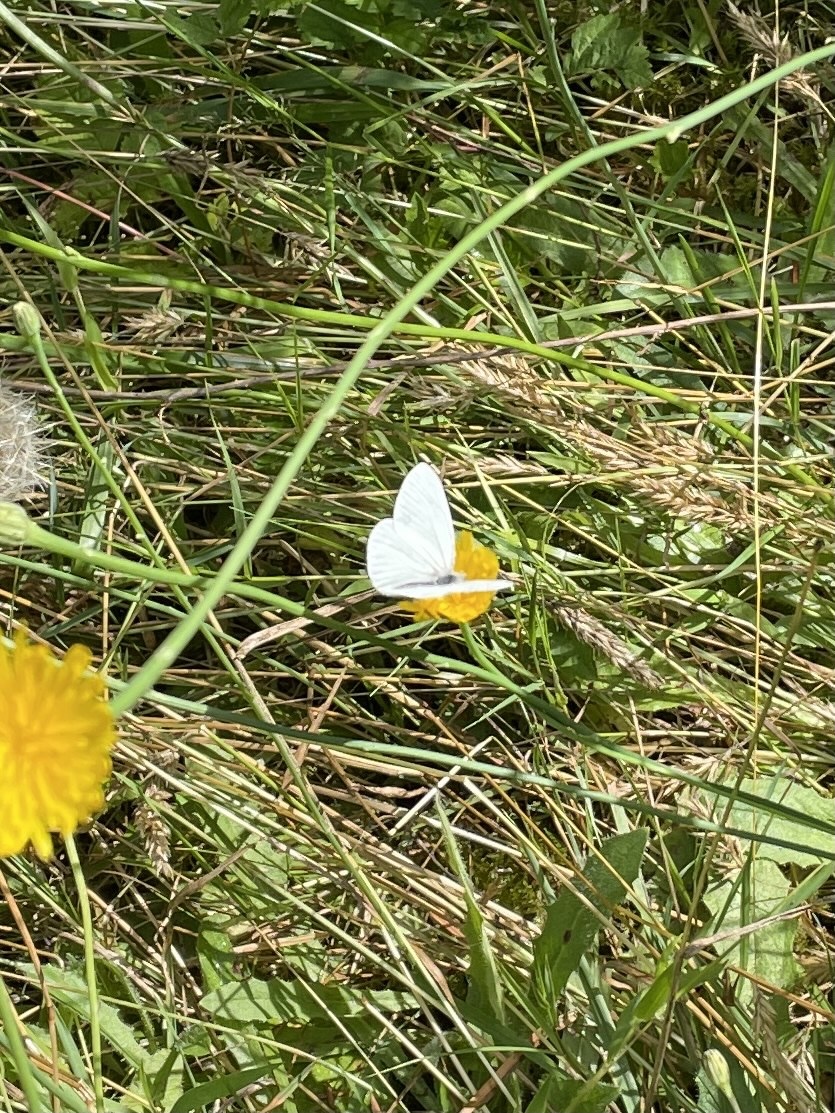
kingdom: Animalia
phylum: Arthropoda
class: Insecta
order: Lepidoptera
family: Pieridae
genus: Pieris
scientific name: Pieris marginalis
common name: Margined white
